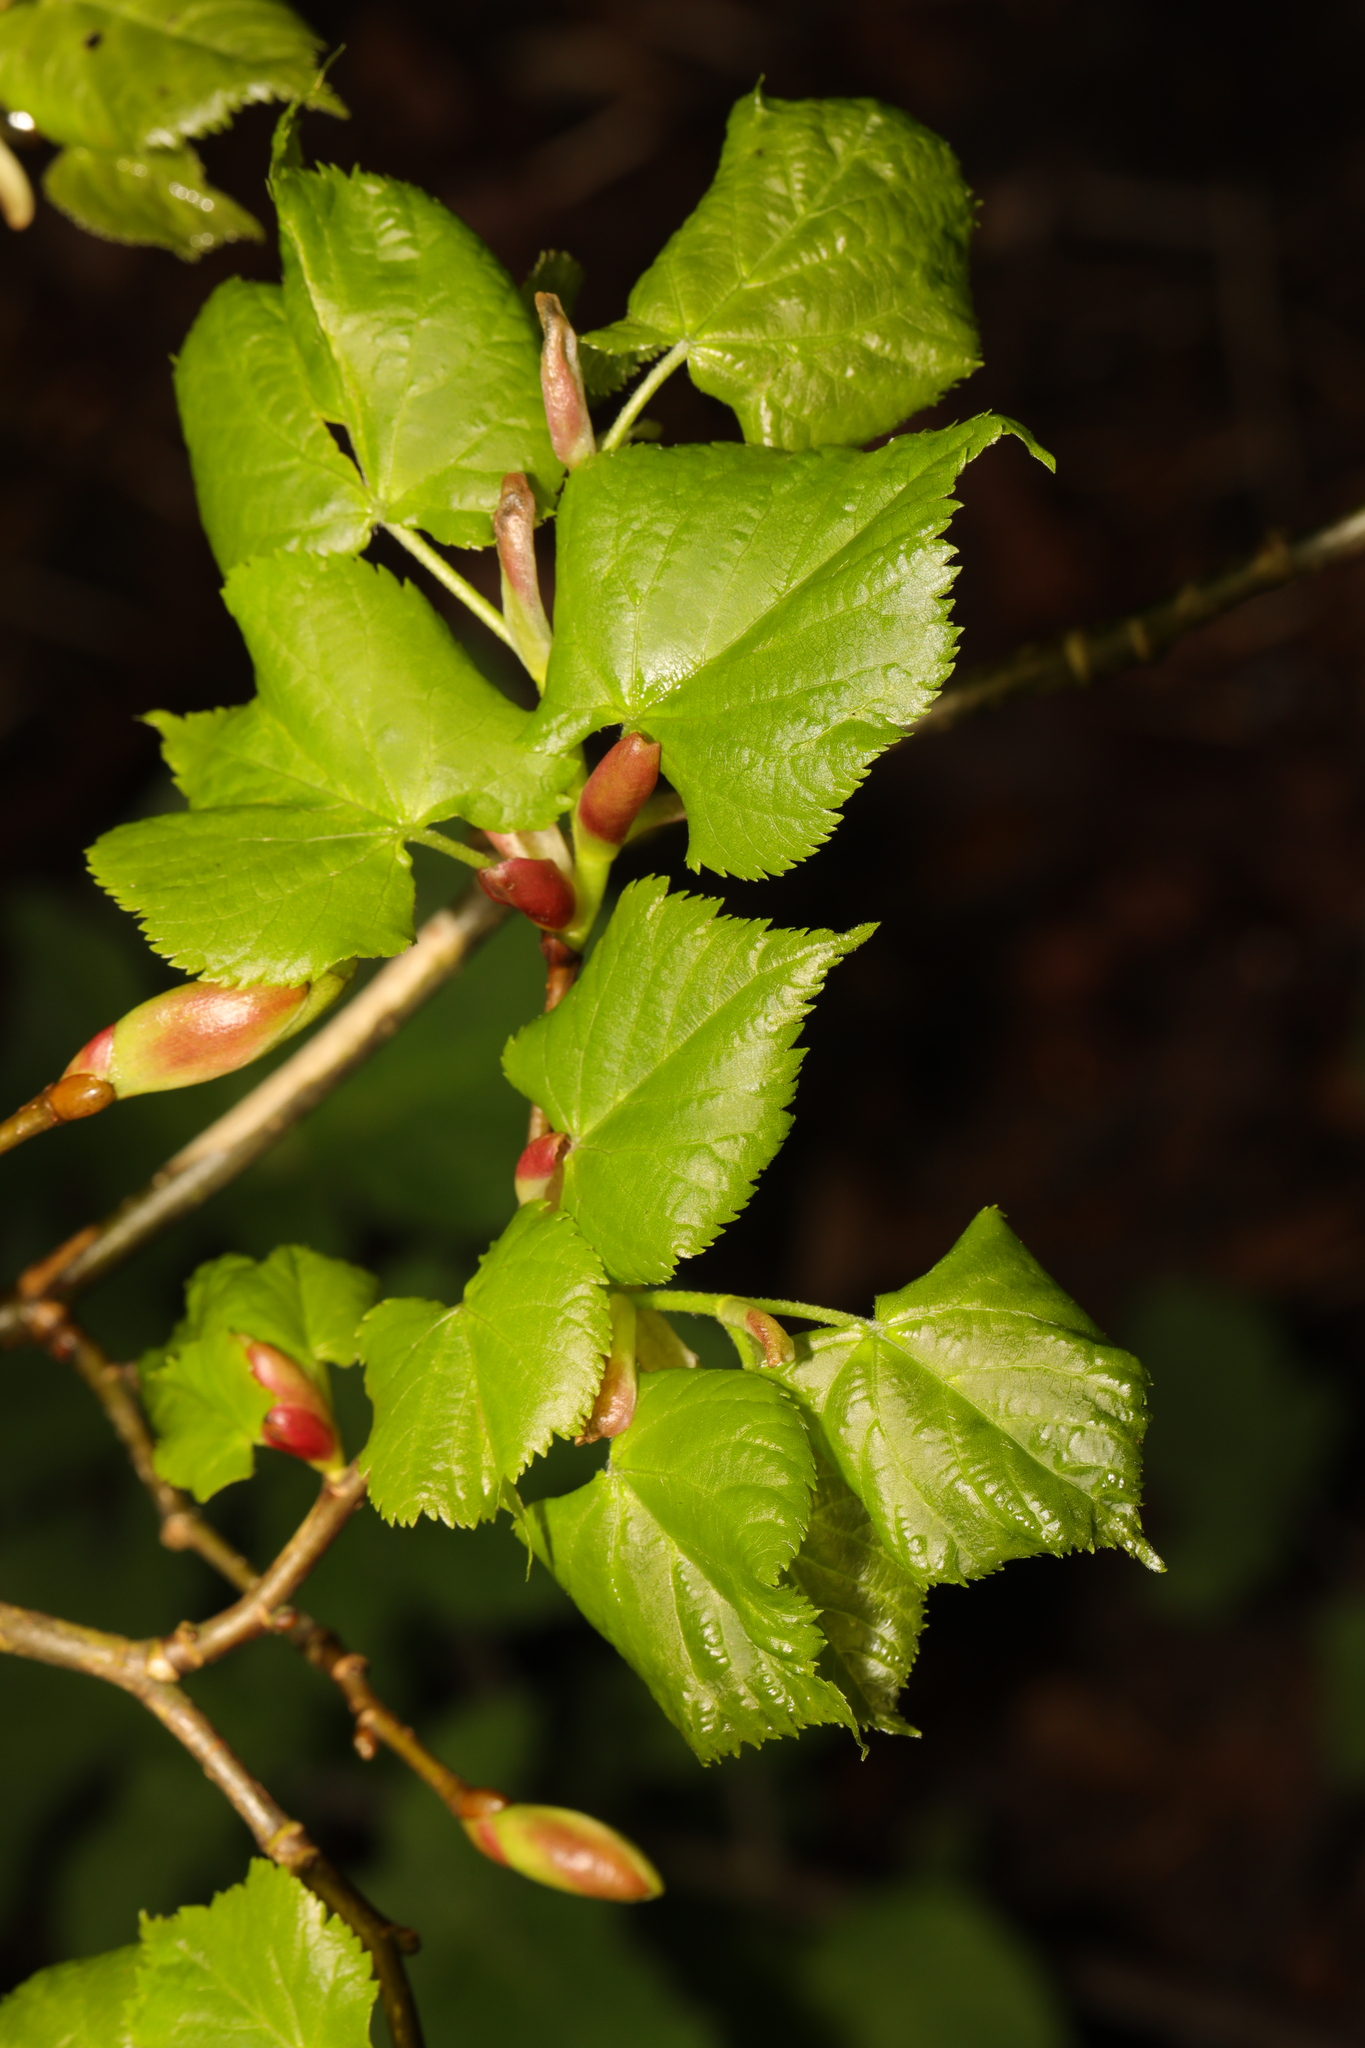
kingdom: Plantae
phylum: Tracheophyta
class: Magnoliopsida
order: Malvales
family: Malvaceae
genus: Tilia
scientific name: Tilia cordata
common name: Small-leaved lime
